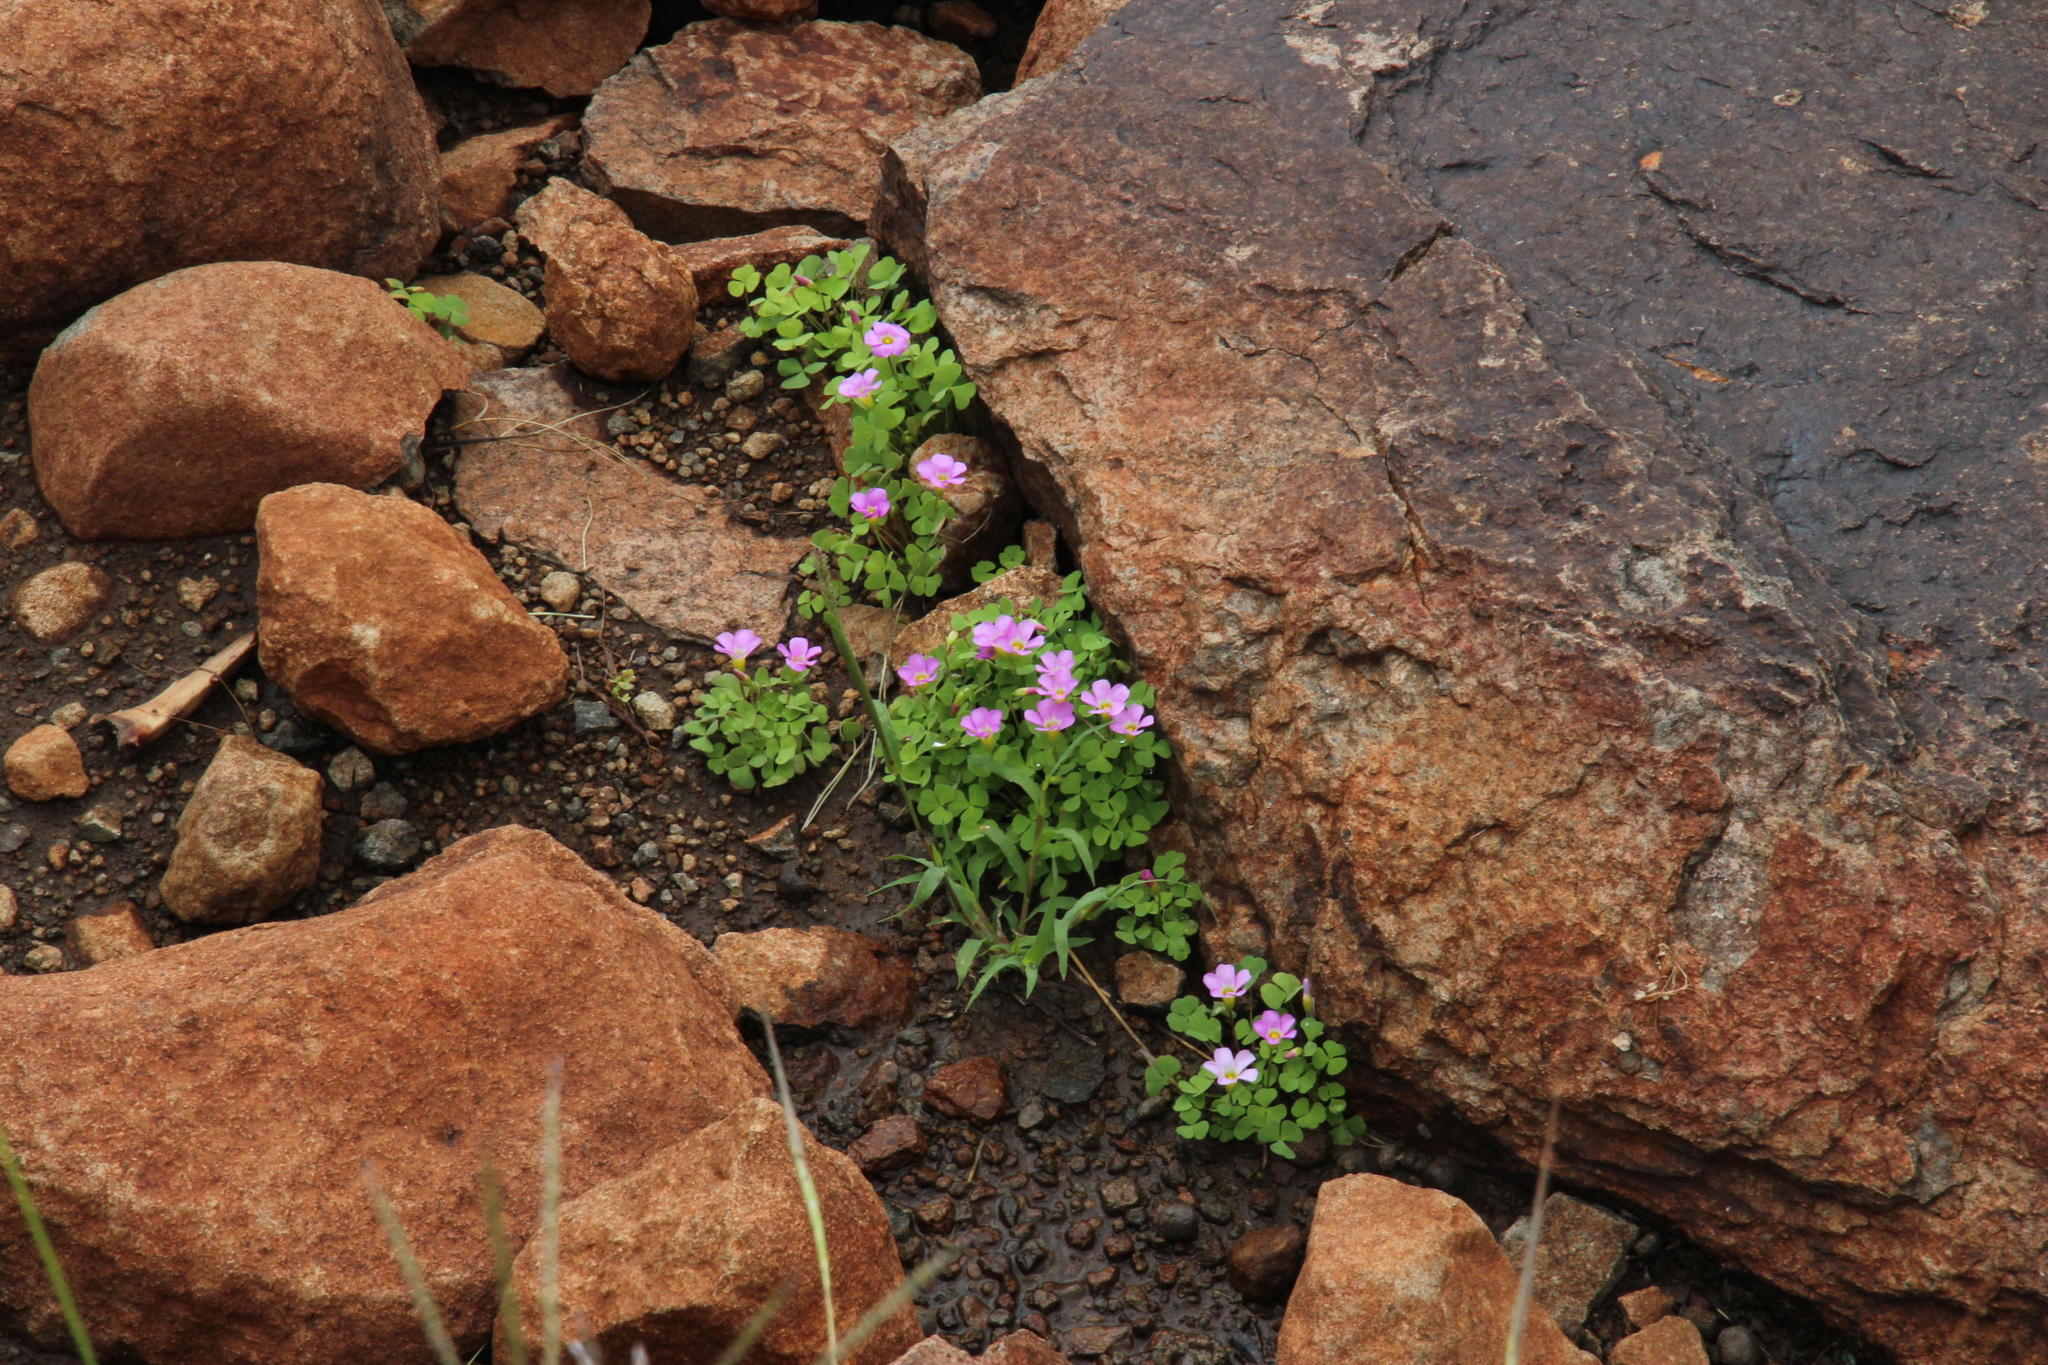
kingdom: Plantae
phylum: Tracheophyta
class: Magnoliopsida
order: Oxalidales
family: Oxalidaceae
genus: Oxalis
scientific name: Oxalis obliquifolia
